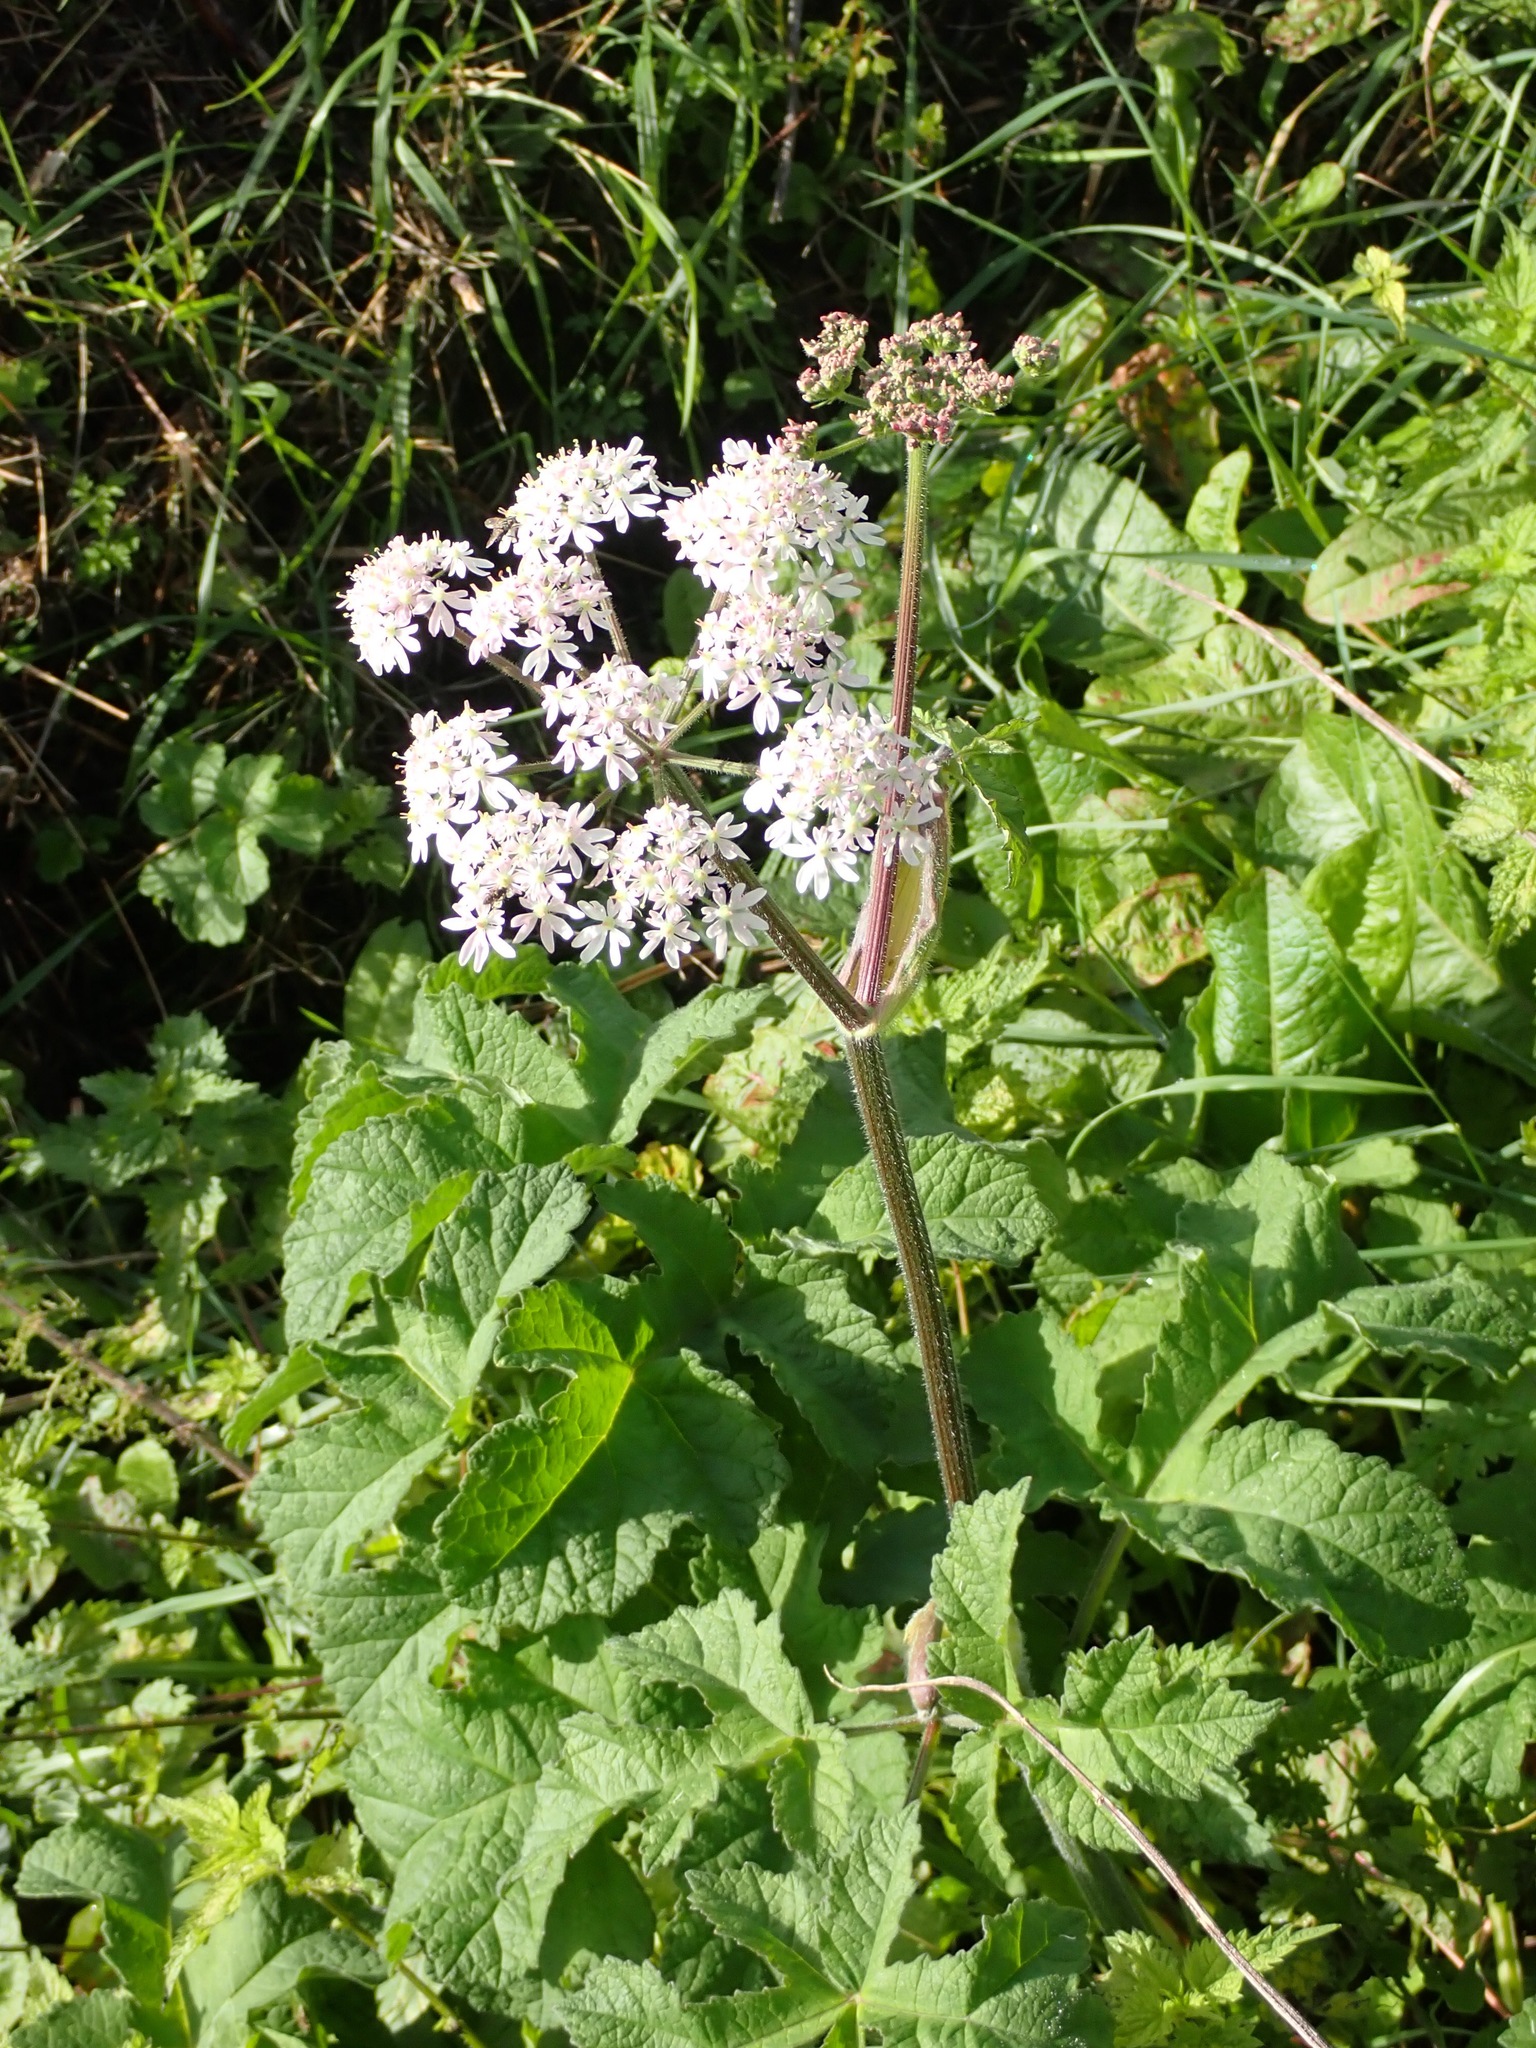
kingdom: Plantae
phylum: Tracheophyta
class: Magnoliopsida
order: Apiales
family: Apiaceae
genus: Heracleum
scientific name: Heracleum sphondylium
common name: Hogweed
